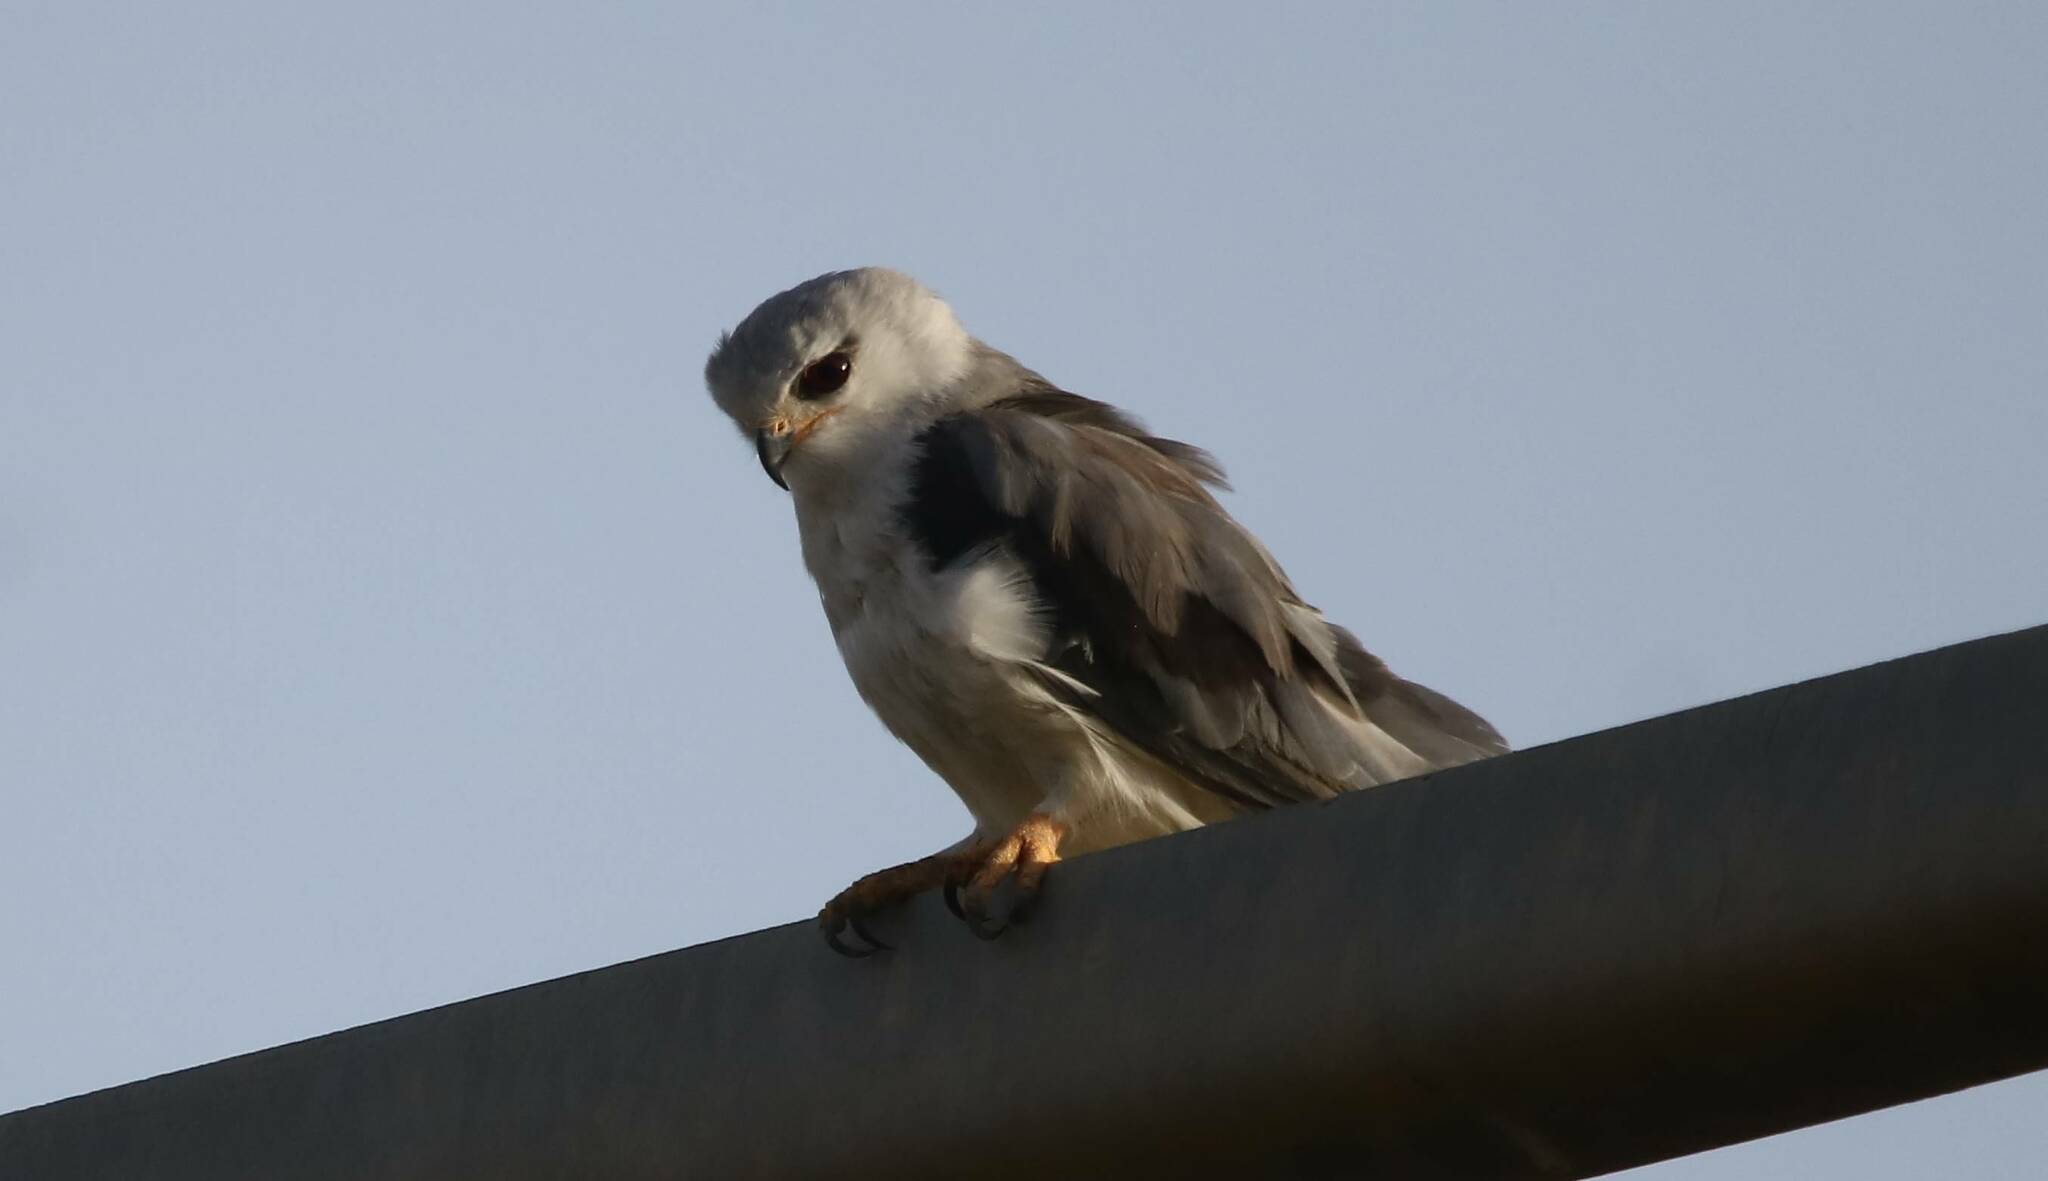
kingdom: Animalia
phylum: Chordata
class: Aves
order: Accipitriformes
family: Accipitridae
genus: Elanus
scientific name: Elanus caeruleus
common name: Black-winged kite
